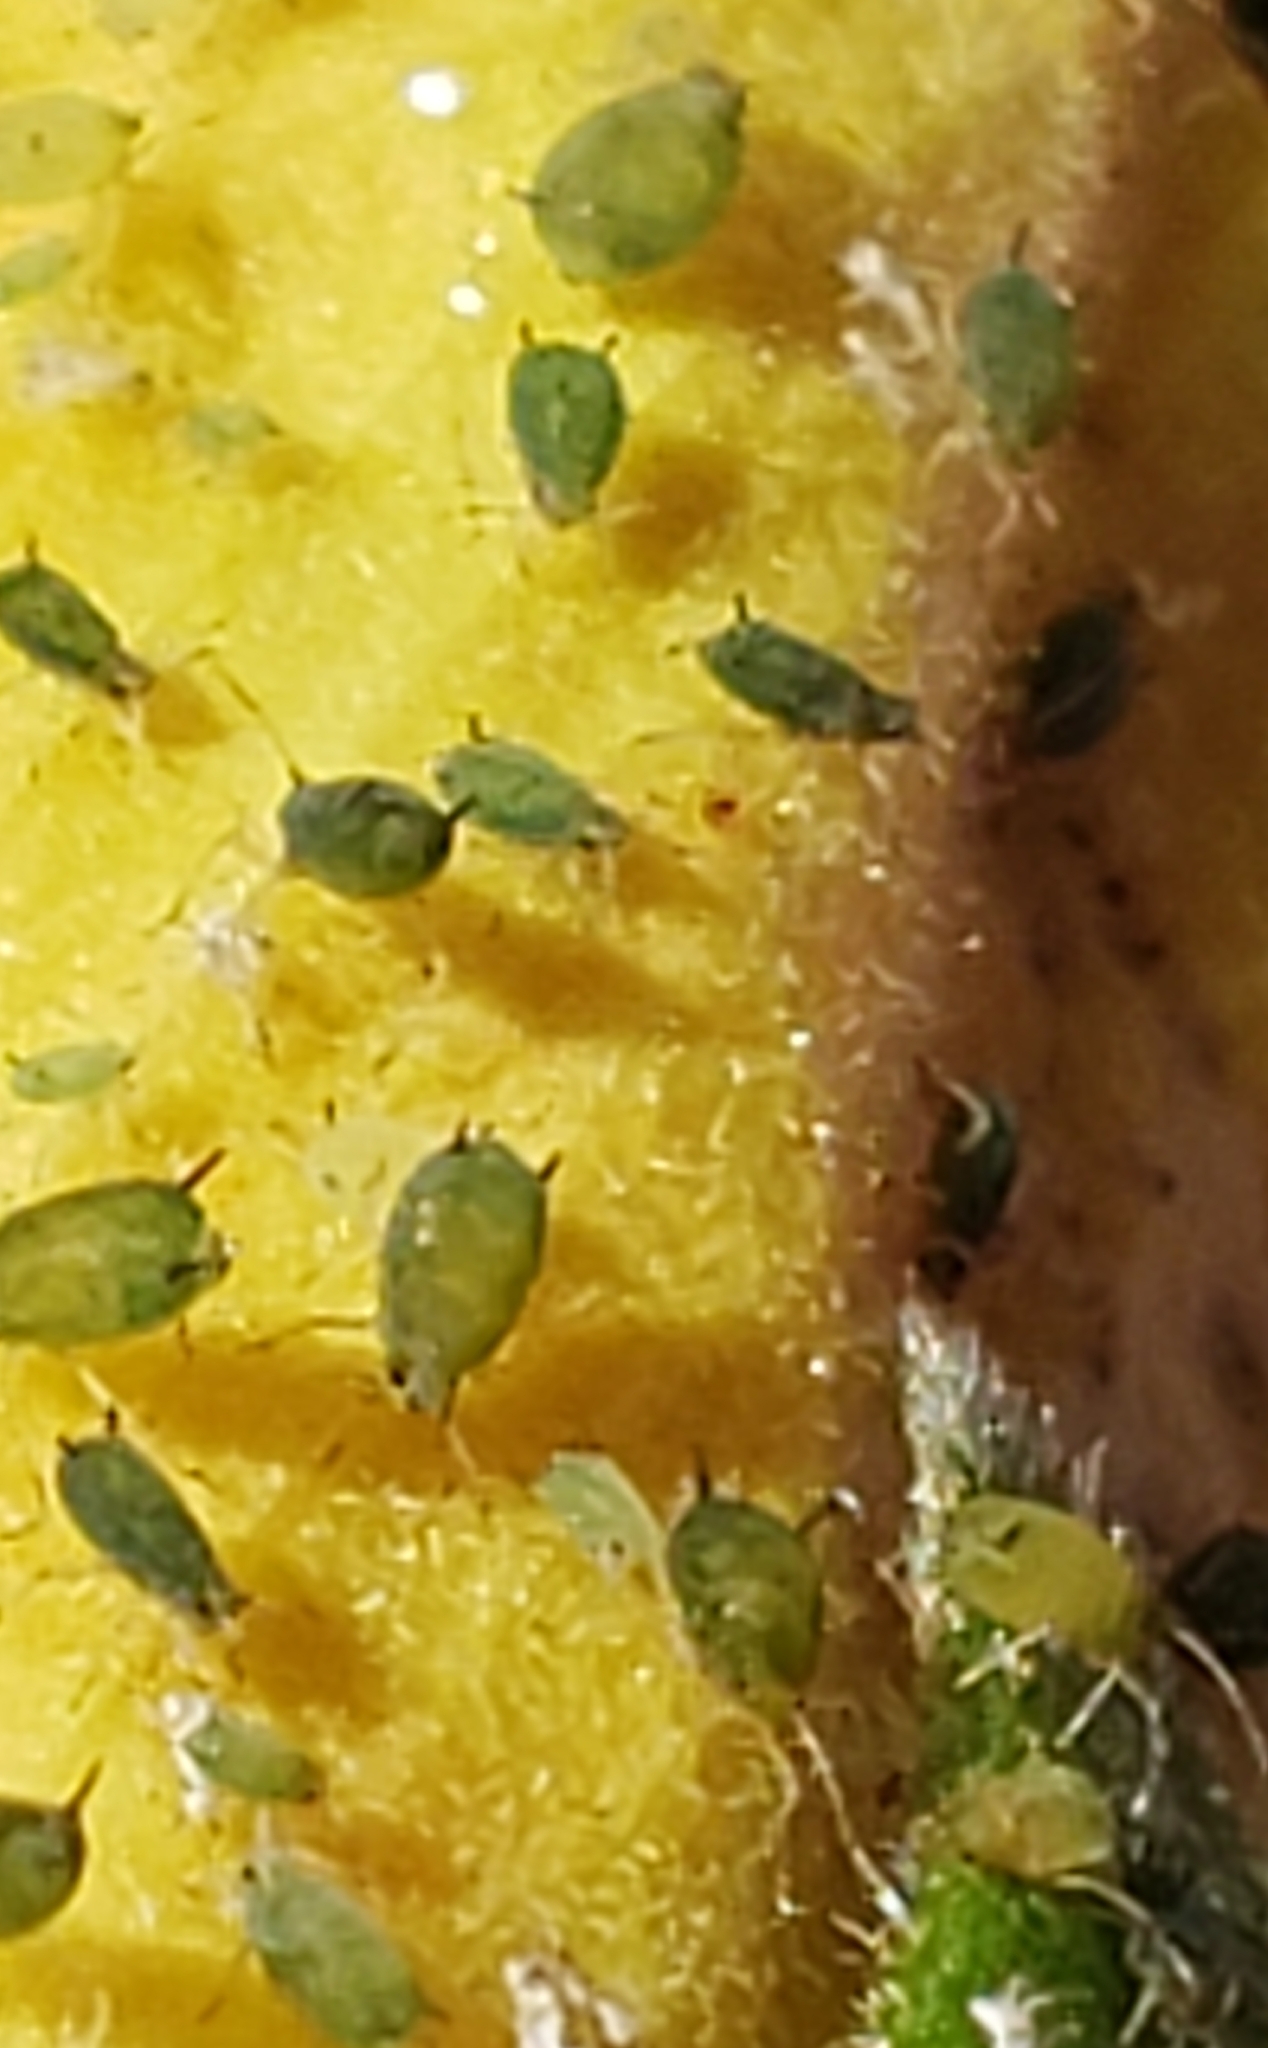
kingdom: Animalia
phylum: Arthropoda
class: Insecta
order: Hemiptera
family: Aphididae
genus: Aphis
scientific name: Aphis gossypii
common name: Melon aphid
